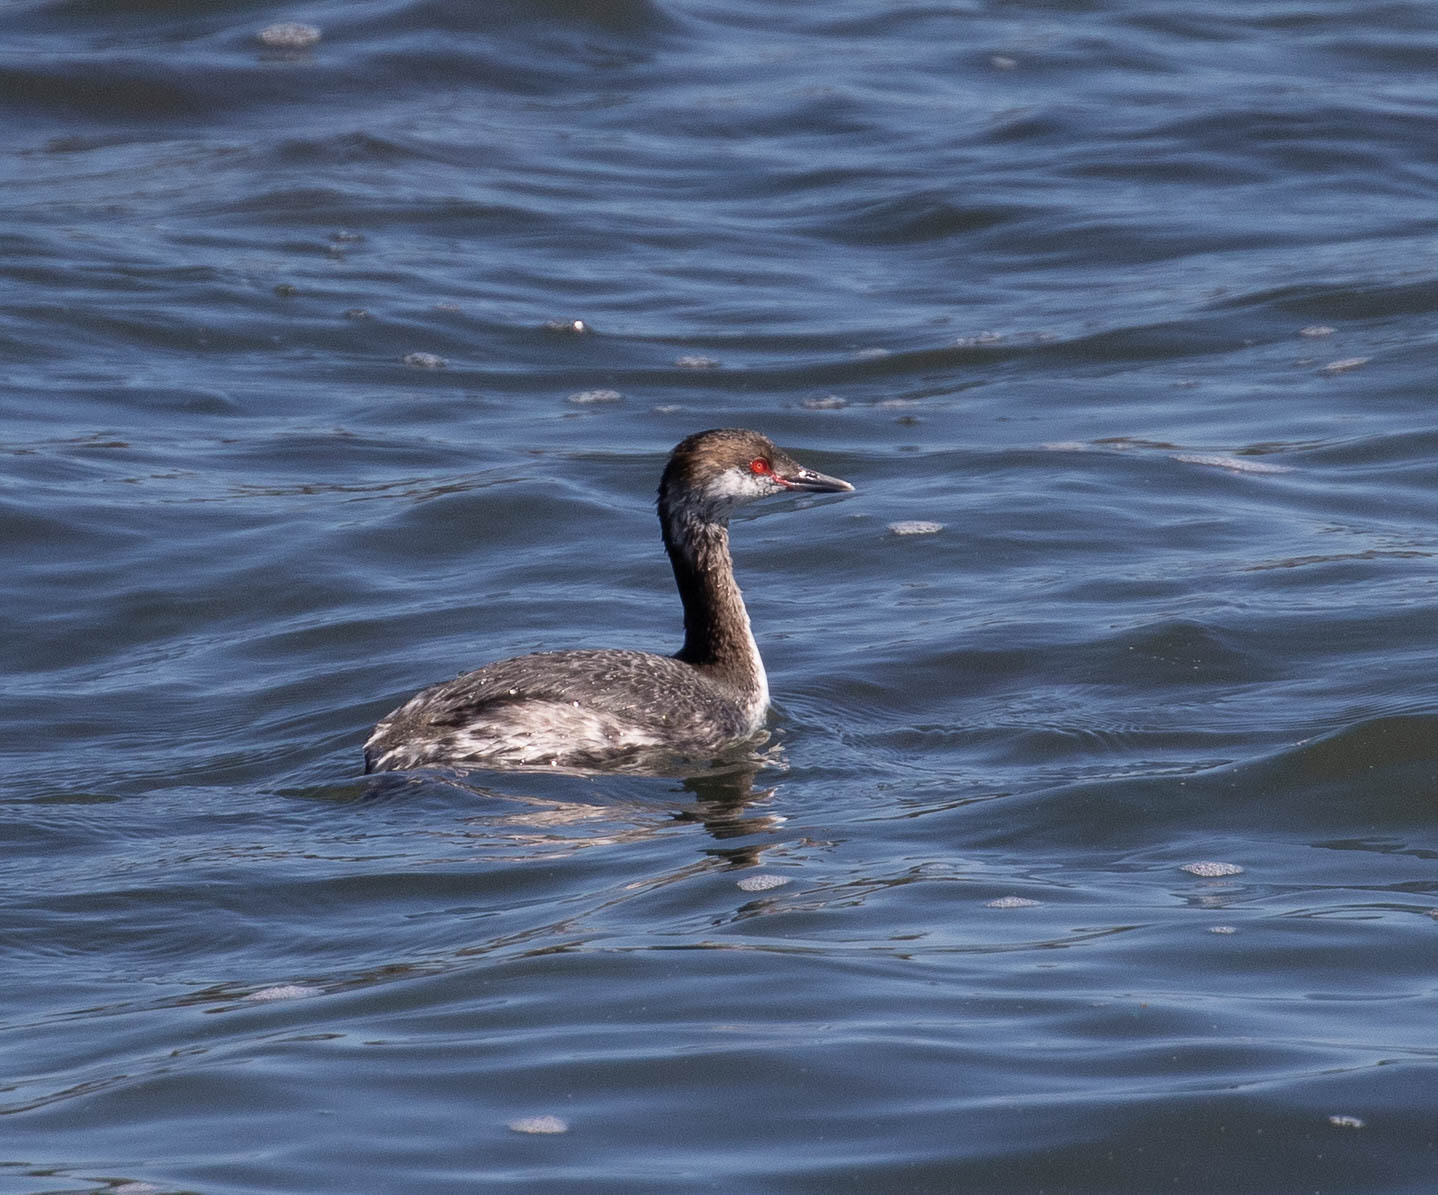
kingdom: Animalia
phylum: Chordata
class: Aves
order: Podicipediformes
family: Podicipedidae
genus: Podiceps
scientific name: Podiceps auritus
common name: Horned grebe
